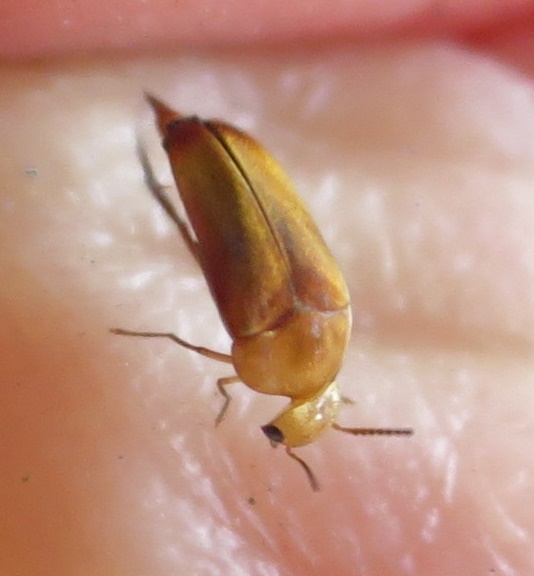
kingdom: Animalia
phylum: Arthropoda
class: Insecta
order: Coleoptera
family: Mordellidae
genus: Tolidopalpus
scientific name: Tolidopalpus
